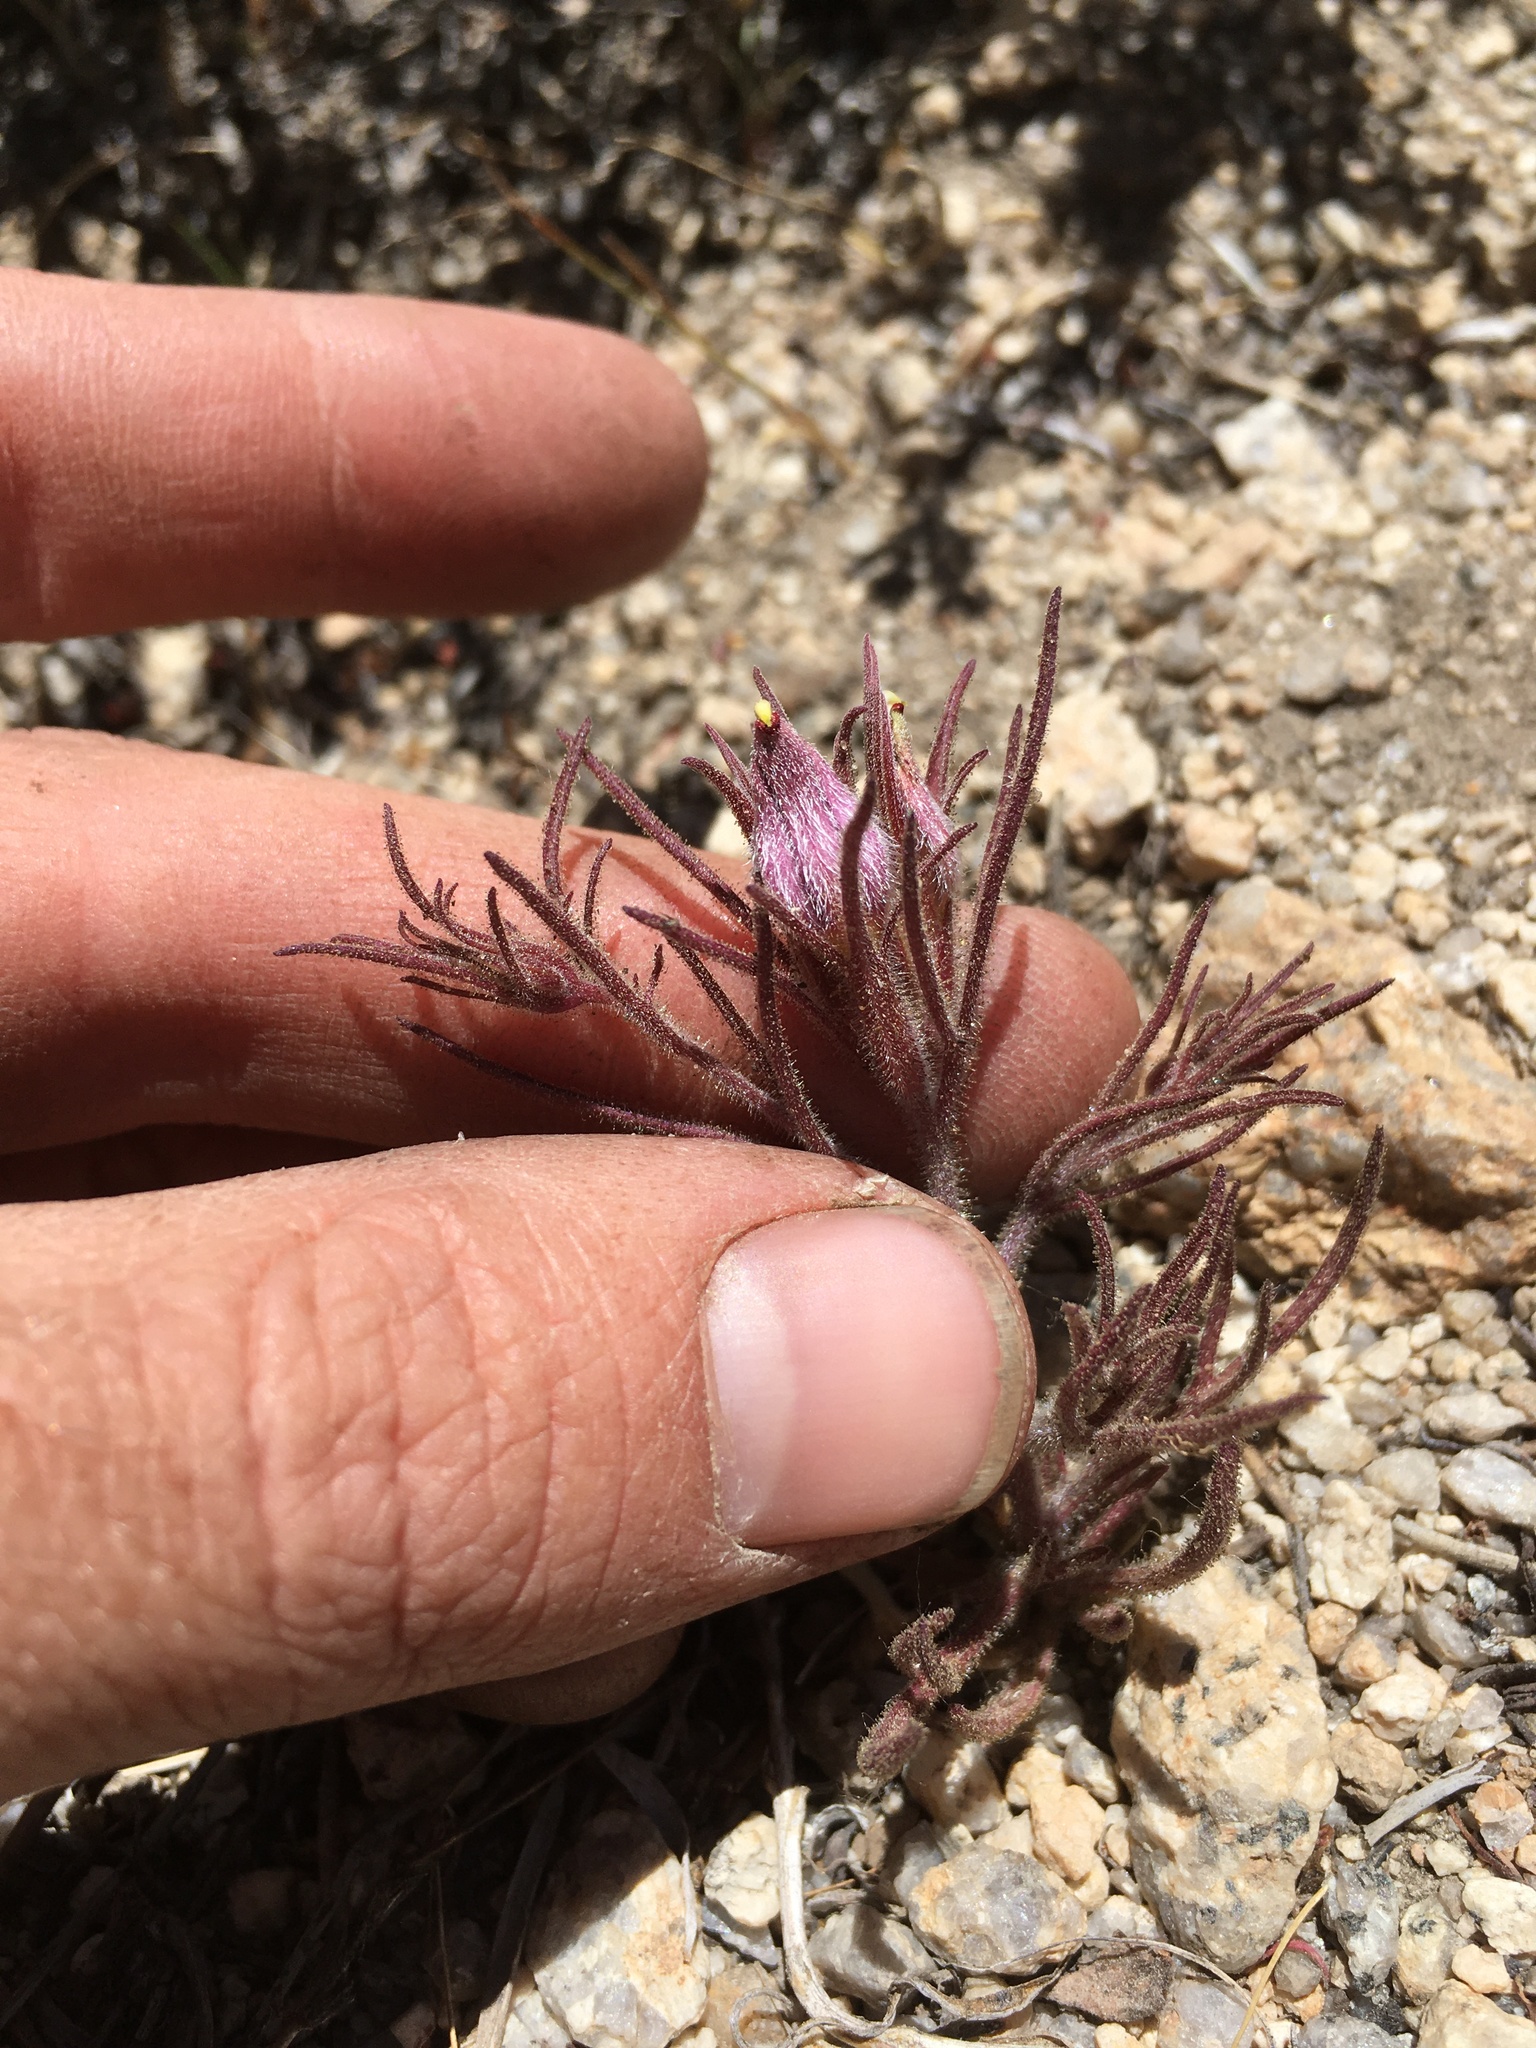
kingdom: Plantae
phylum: Tracheophyta
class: Magnoliopsida
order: Lamiales
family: Orobanchaceae
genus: Cordylanthus
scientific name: Cordylanthus kingii
